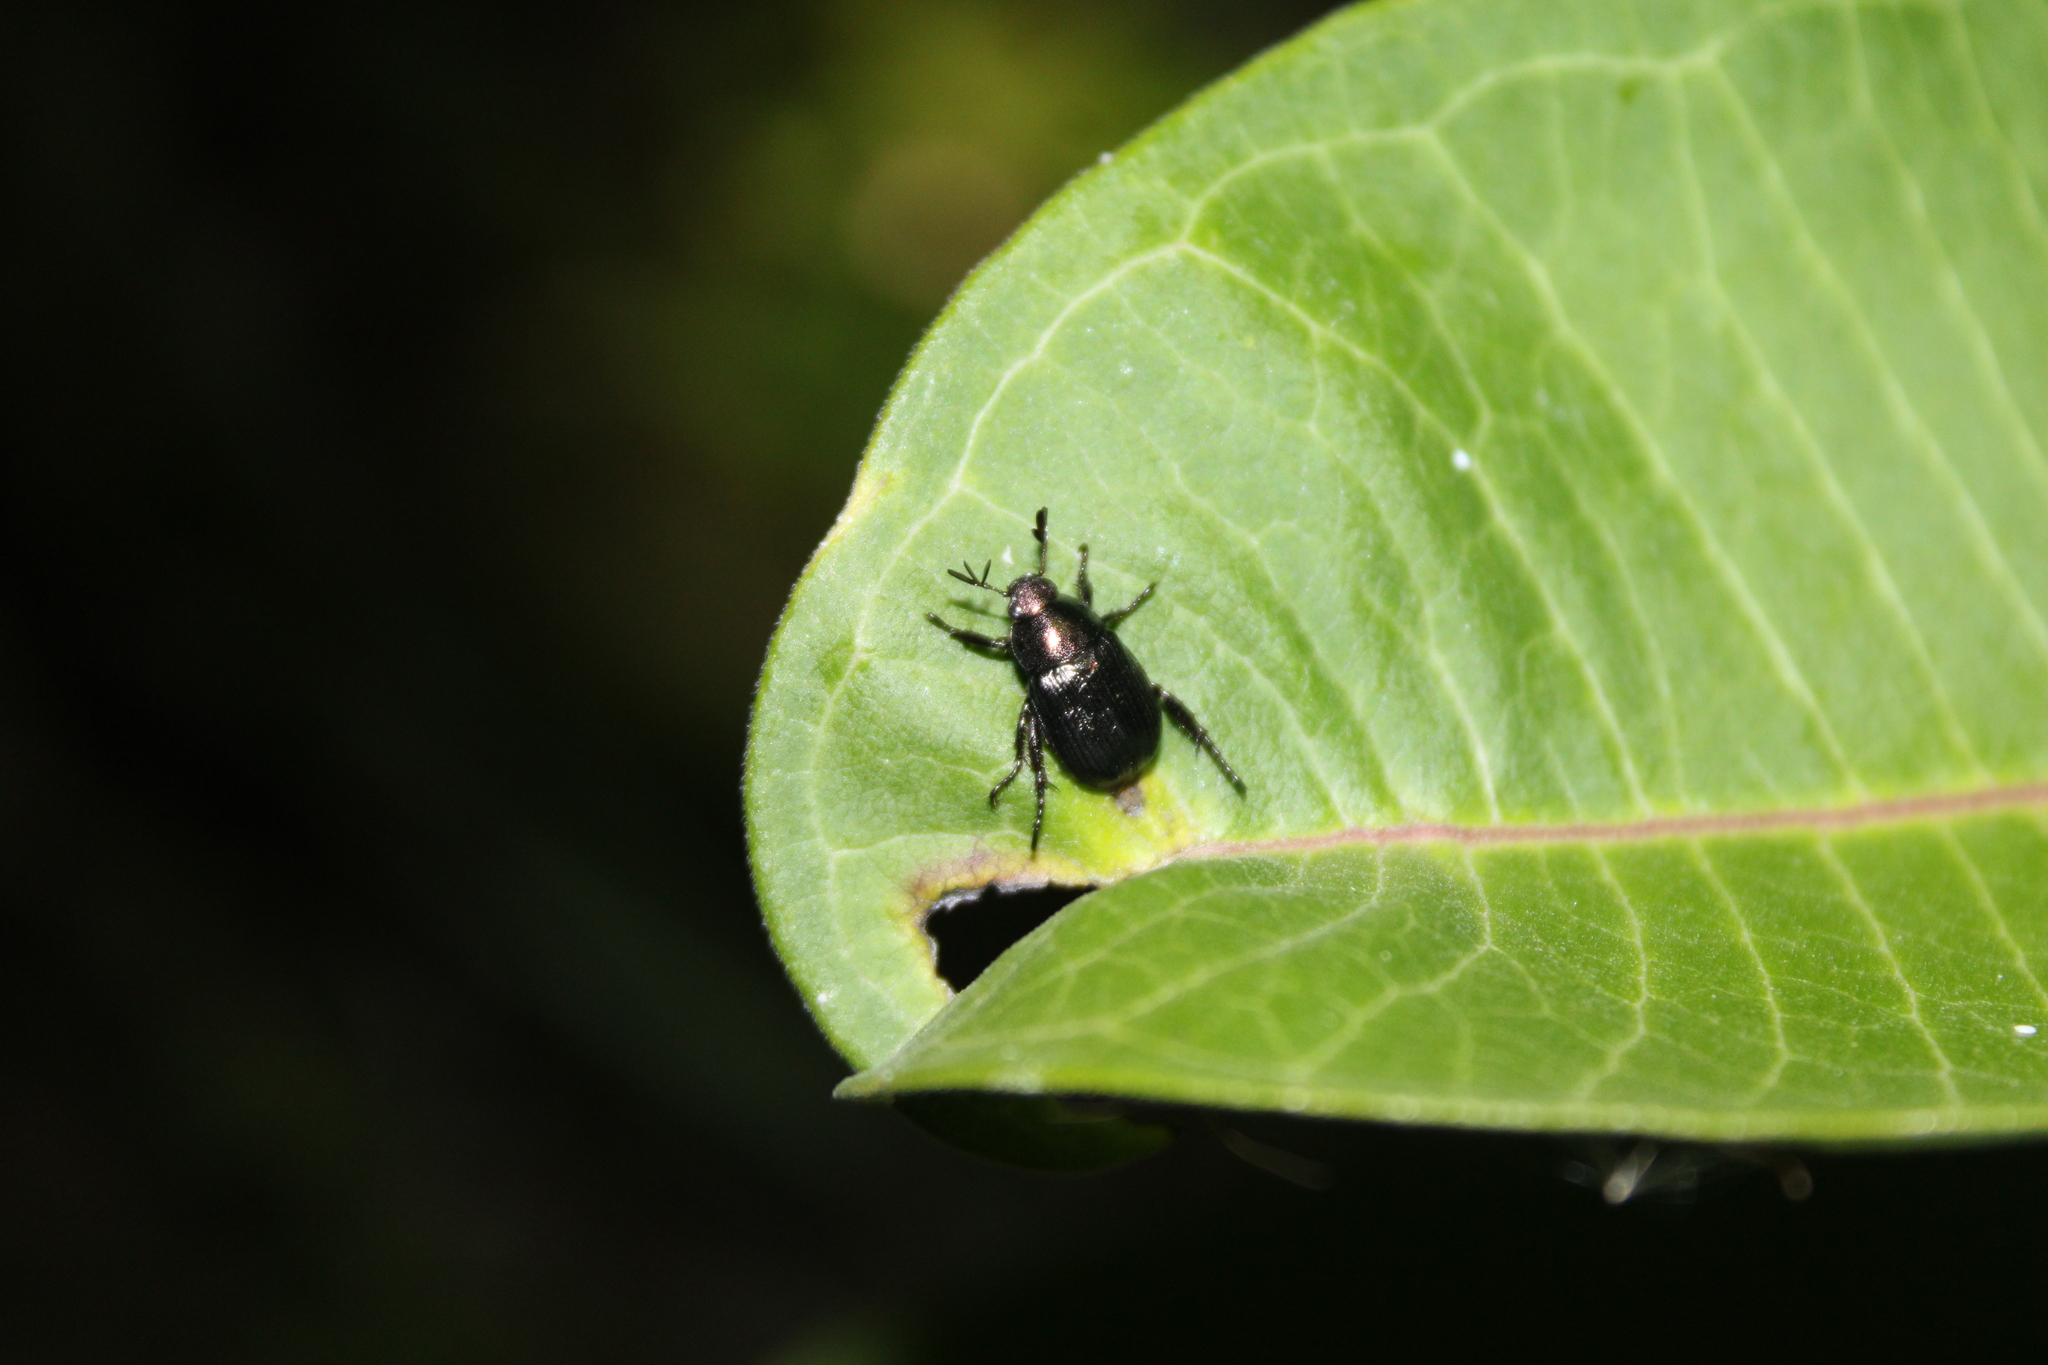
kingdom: Animalia
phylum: Arthropoda
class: Insecta
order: Coleoptera
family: Scarabaeidae
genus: Exomala
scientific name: Exomala orientalis
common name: Oriental beetle
